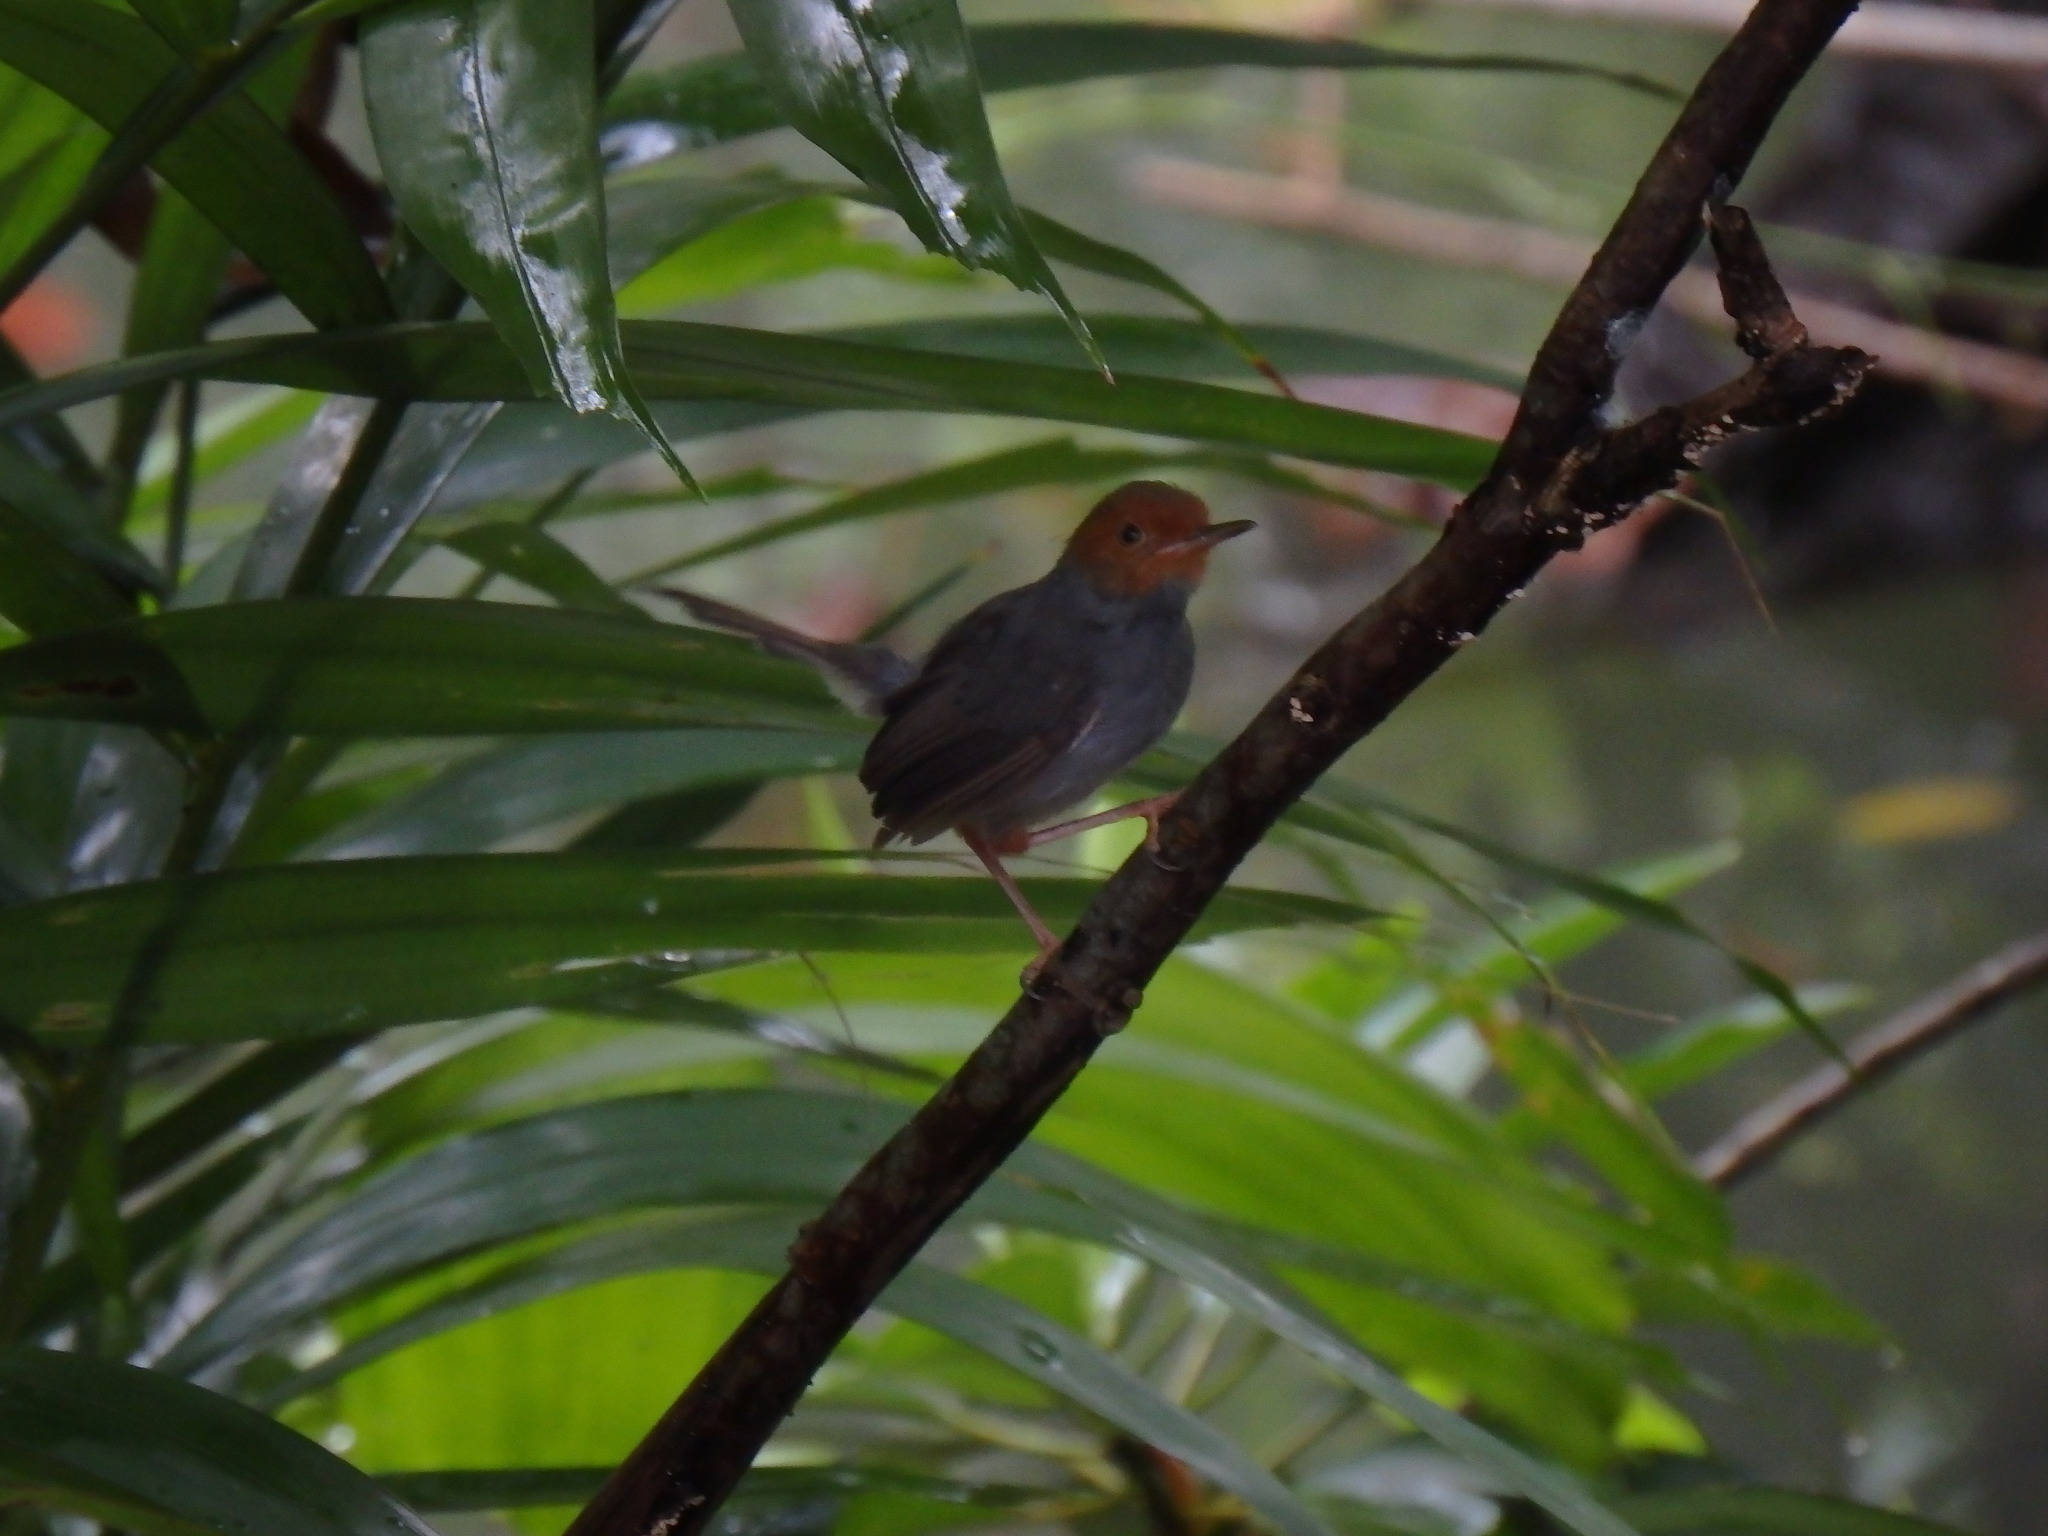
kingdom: Animalia
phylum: Chordata
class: Aves
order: Passeriformes
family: Cisticolidae
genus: Orthotomus
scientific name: Orthotomus ruficeps
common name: Ashy tailorbird
